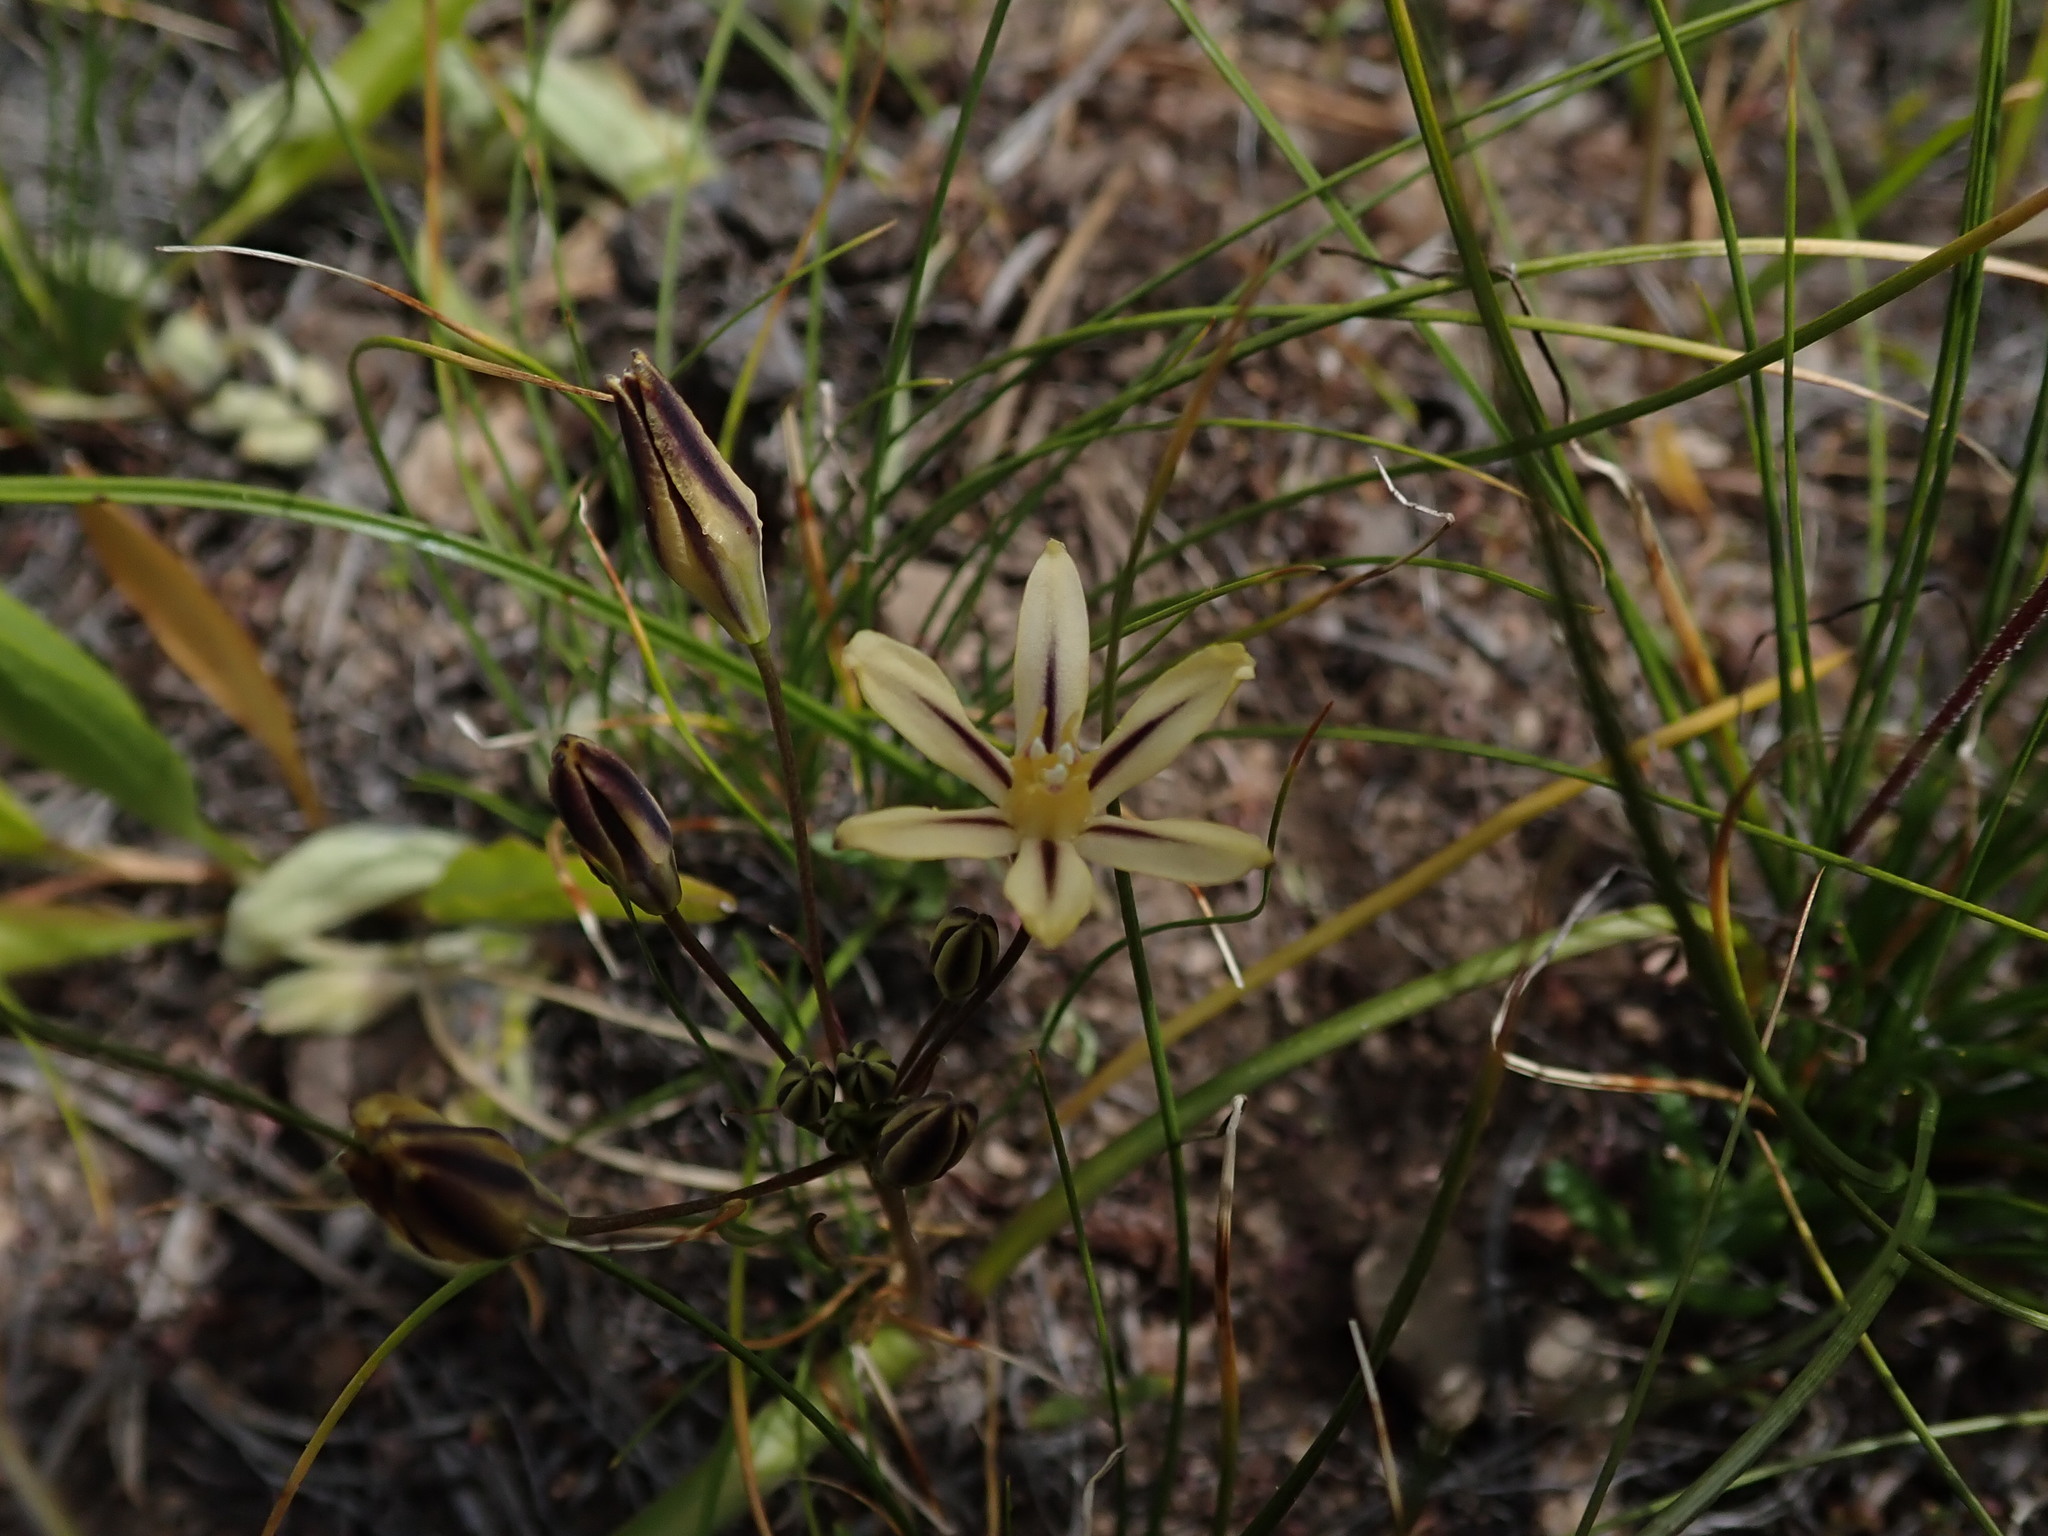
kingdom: Plantae
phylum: Tracheophyta
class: Liliopsida
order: Asparagales
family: Asparagaceae
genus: Triteleia
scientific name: Triteleia ixioides
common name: Yellow-brodiaea
